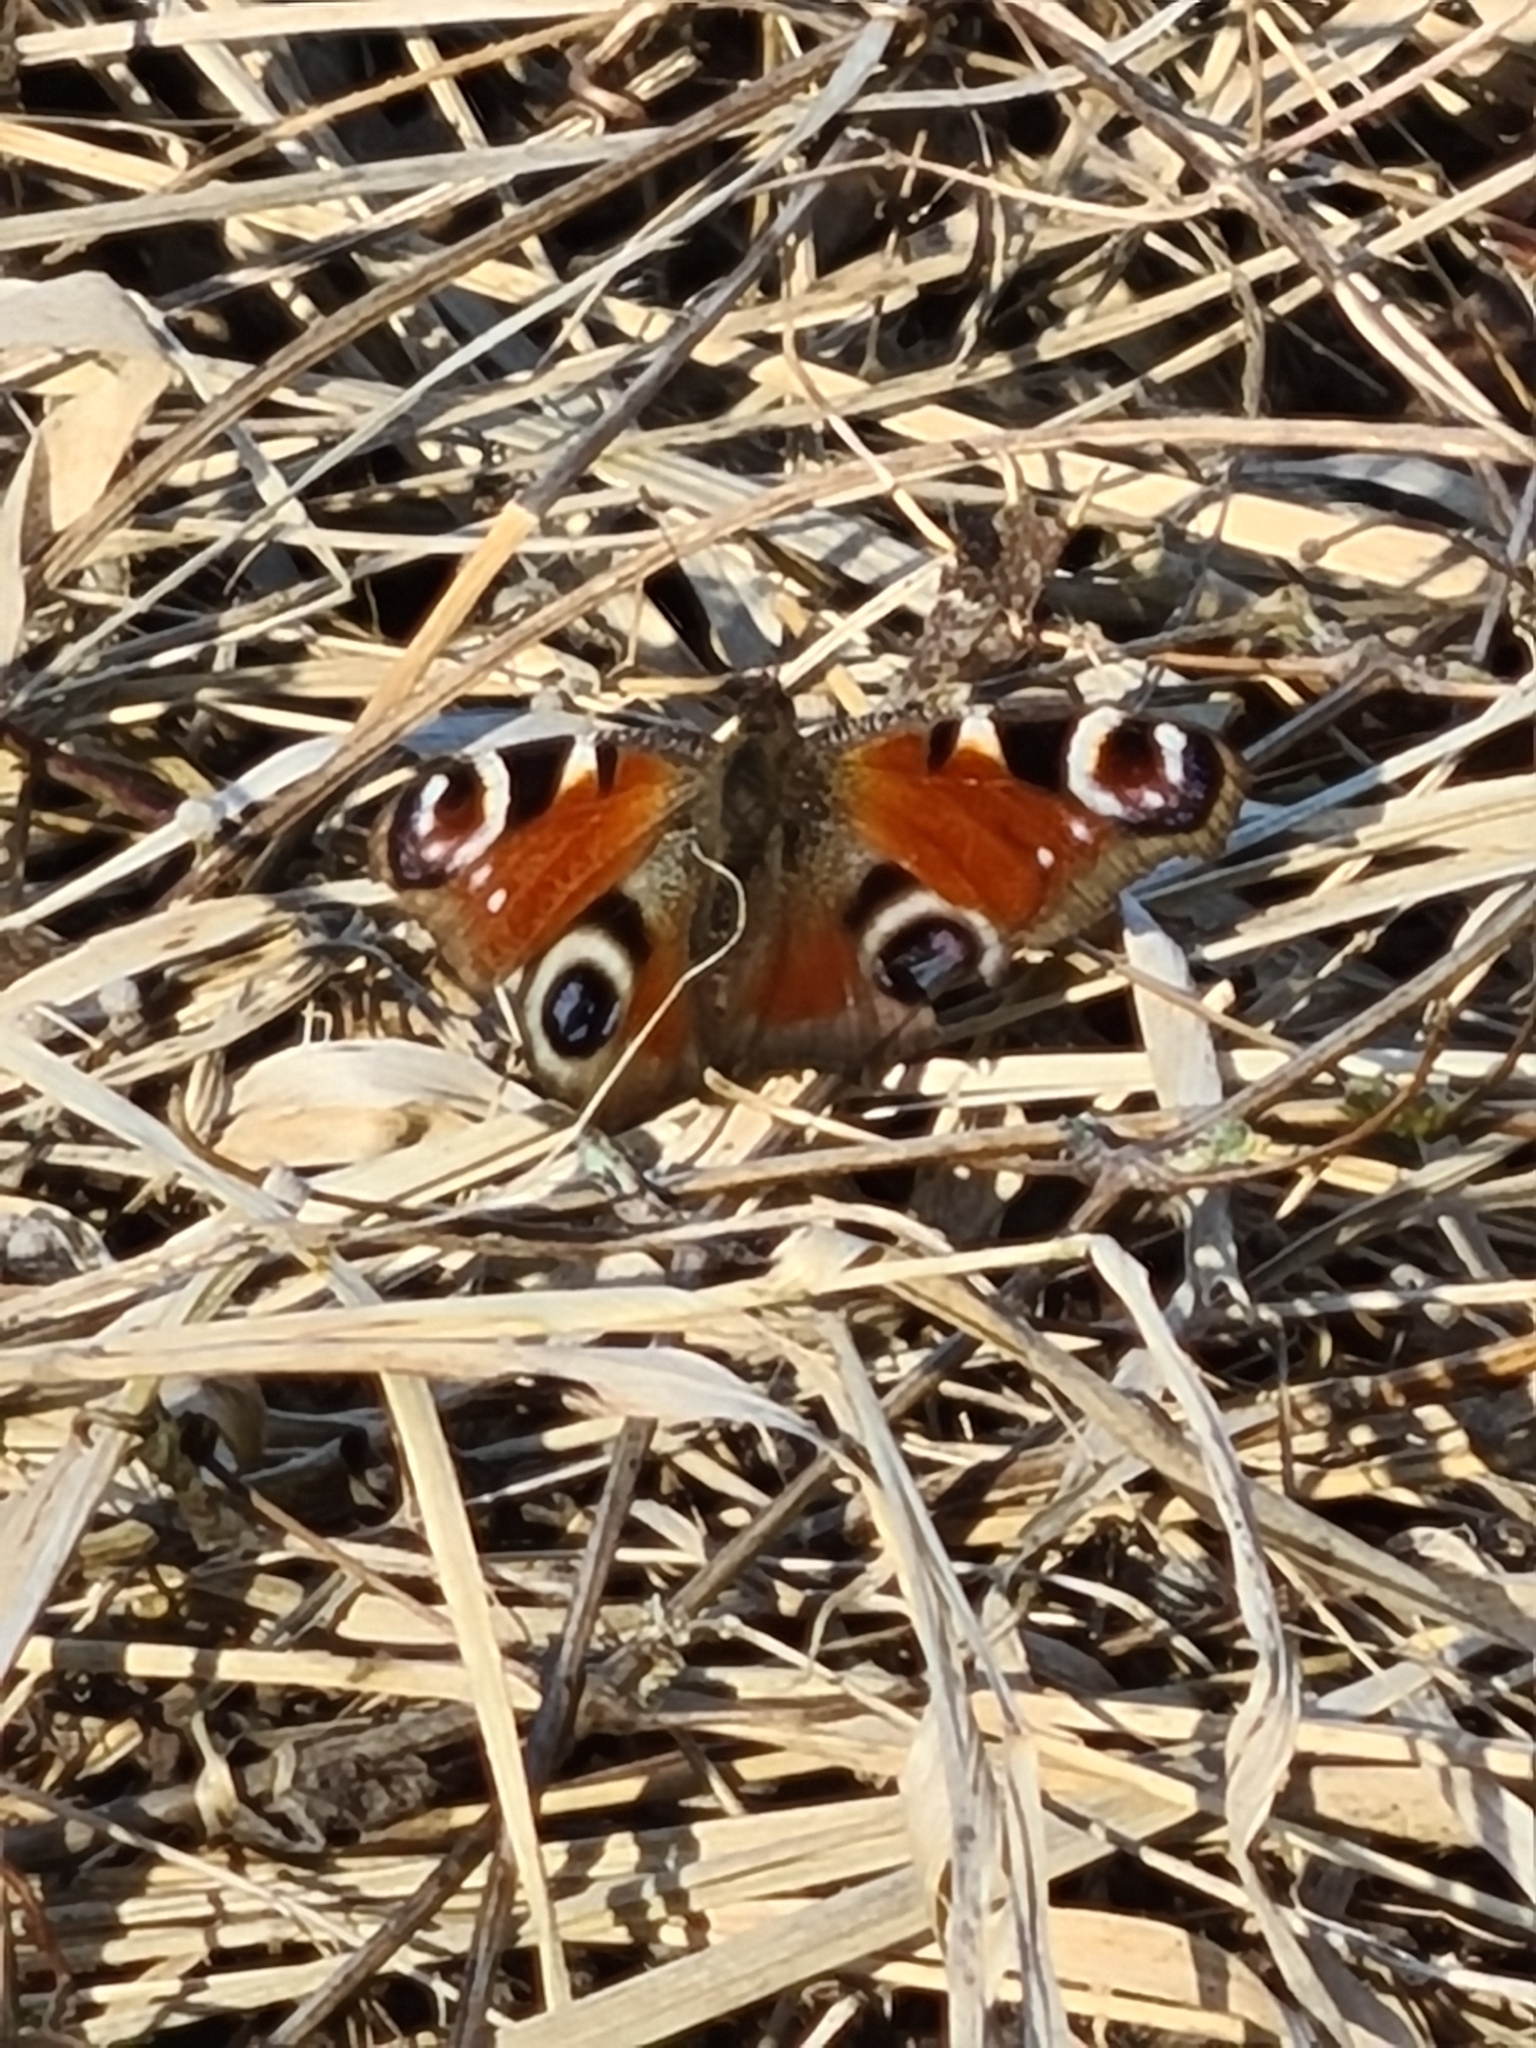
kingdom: Animalia
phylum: Arthropoda
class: Insecta
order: Lepidoptera
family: Nymphalidae
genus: Aglais
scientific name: Aglais io
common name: Peacock
